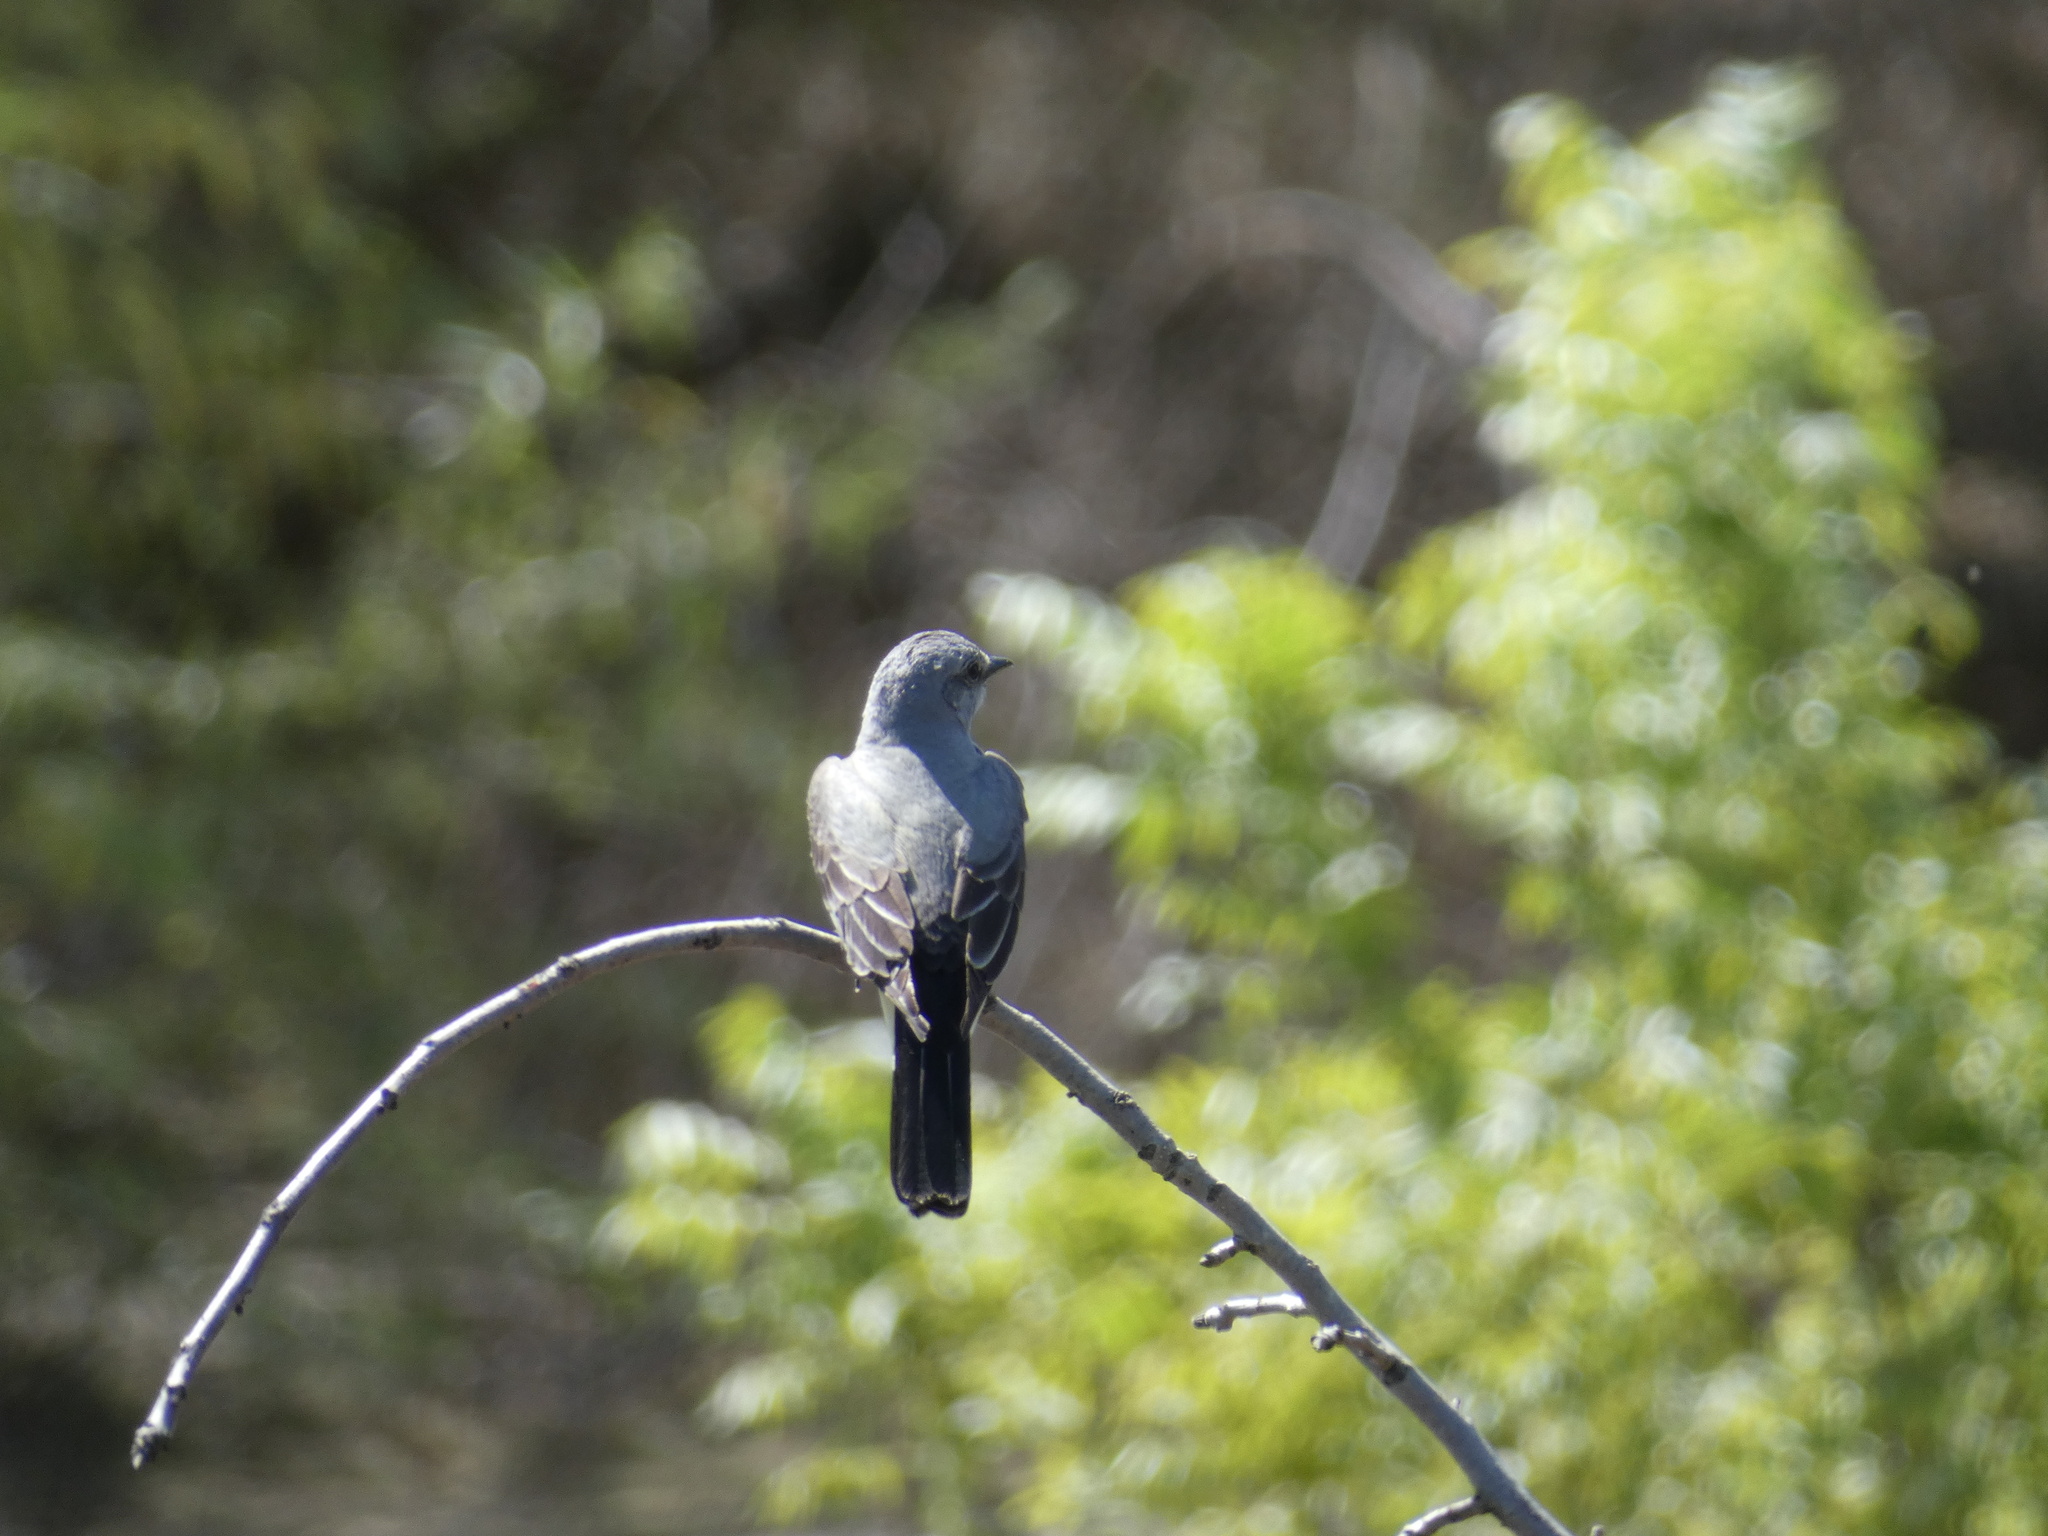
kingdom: Animalia
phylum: Chordata
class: Aves
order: Passeriformes
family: Tyrannidae
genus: Tyrannus
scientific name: Tyrannus verticalis
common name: Western kingbird
